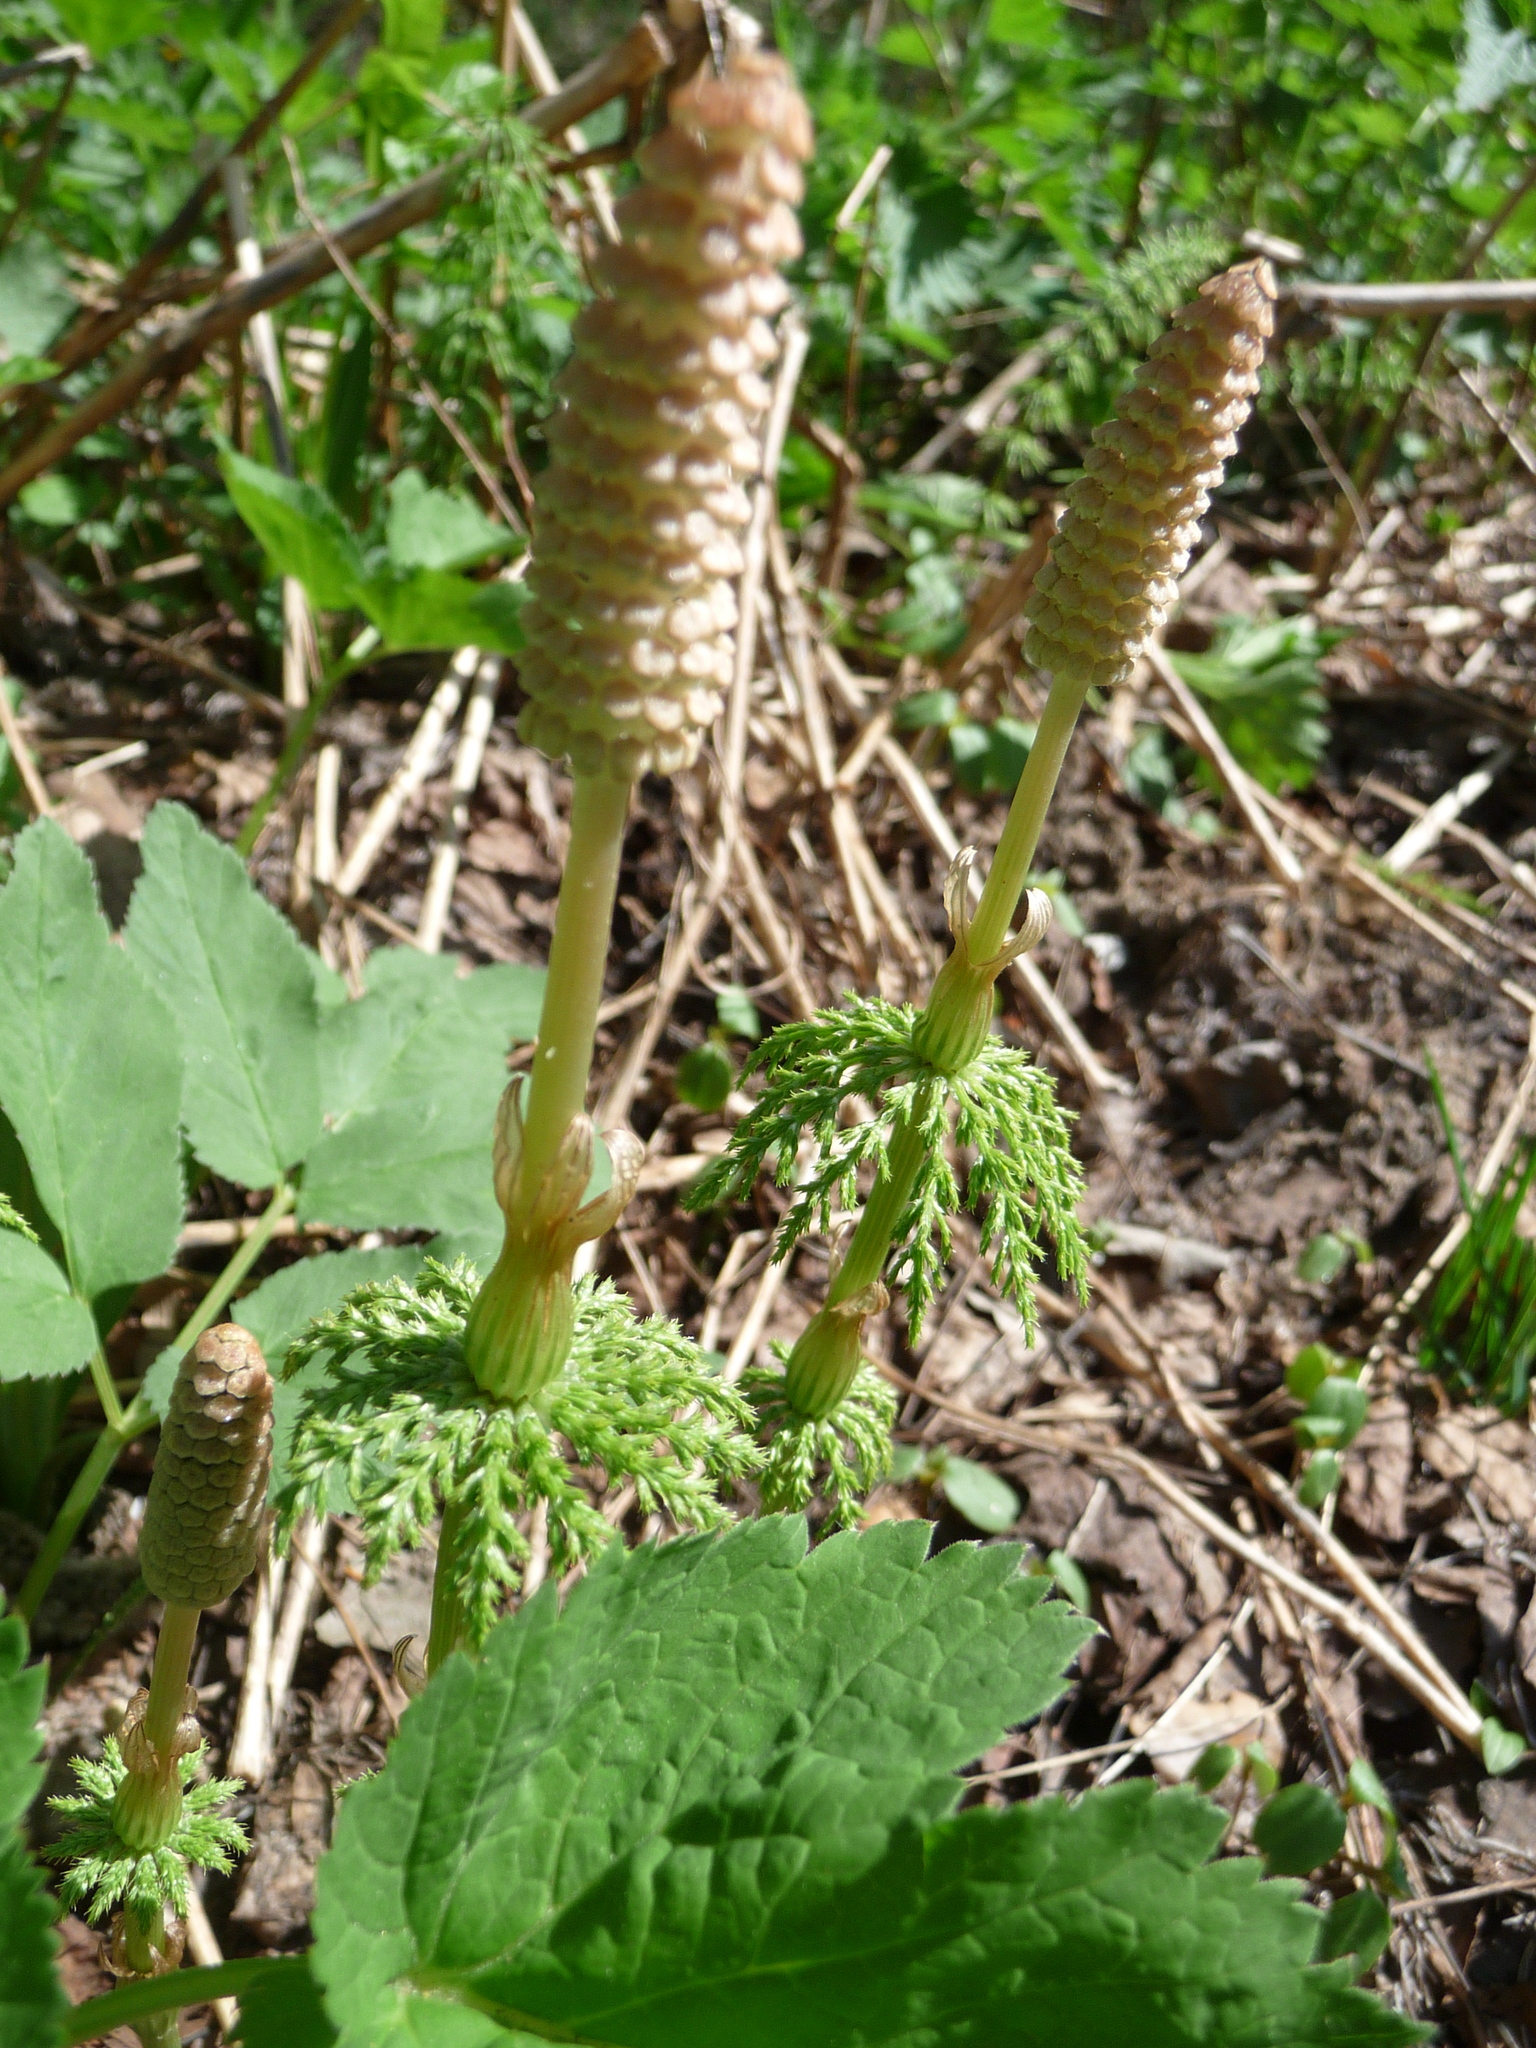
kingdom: Plantae
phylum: Tracheophyta
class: Polypodiopsida
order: Equisetales
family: Equisetaceae
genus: Equisetum
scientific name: Equisetum sylvaticum
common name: Wood horsetail
